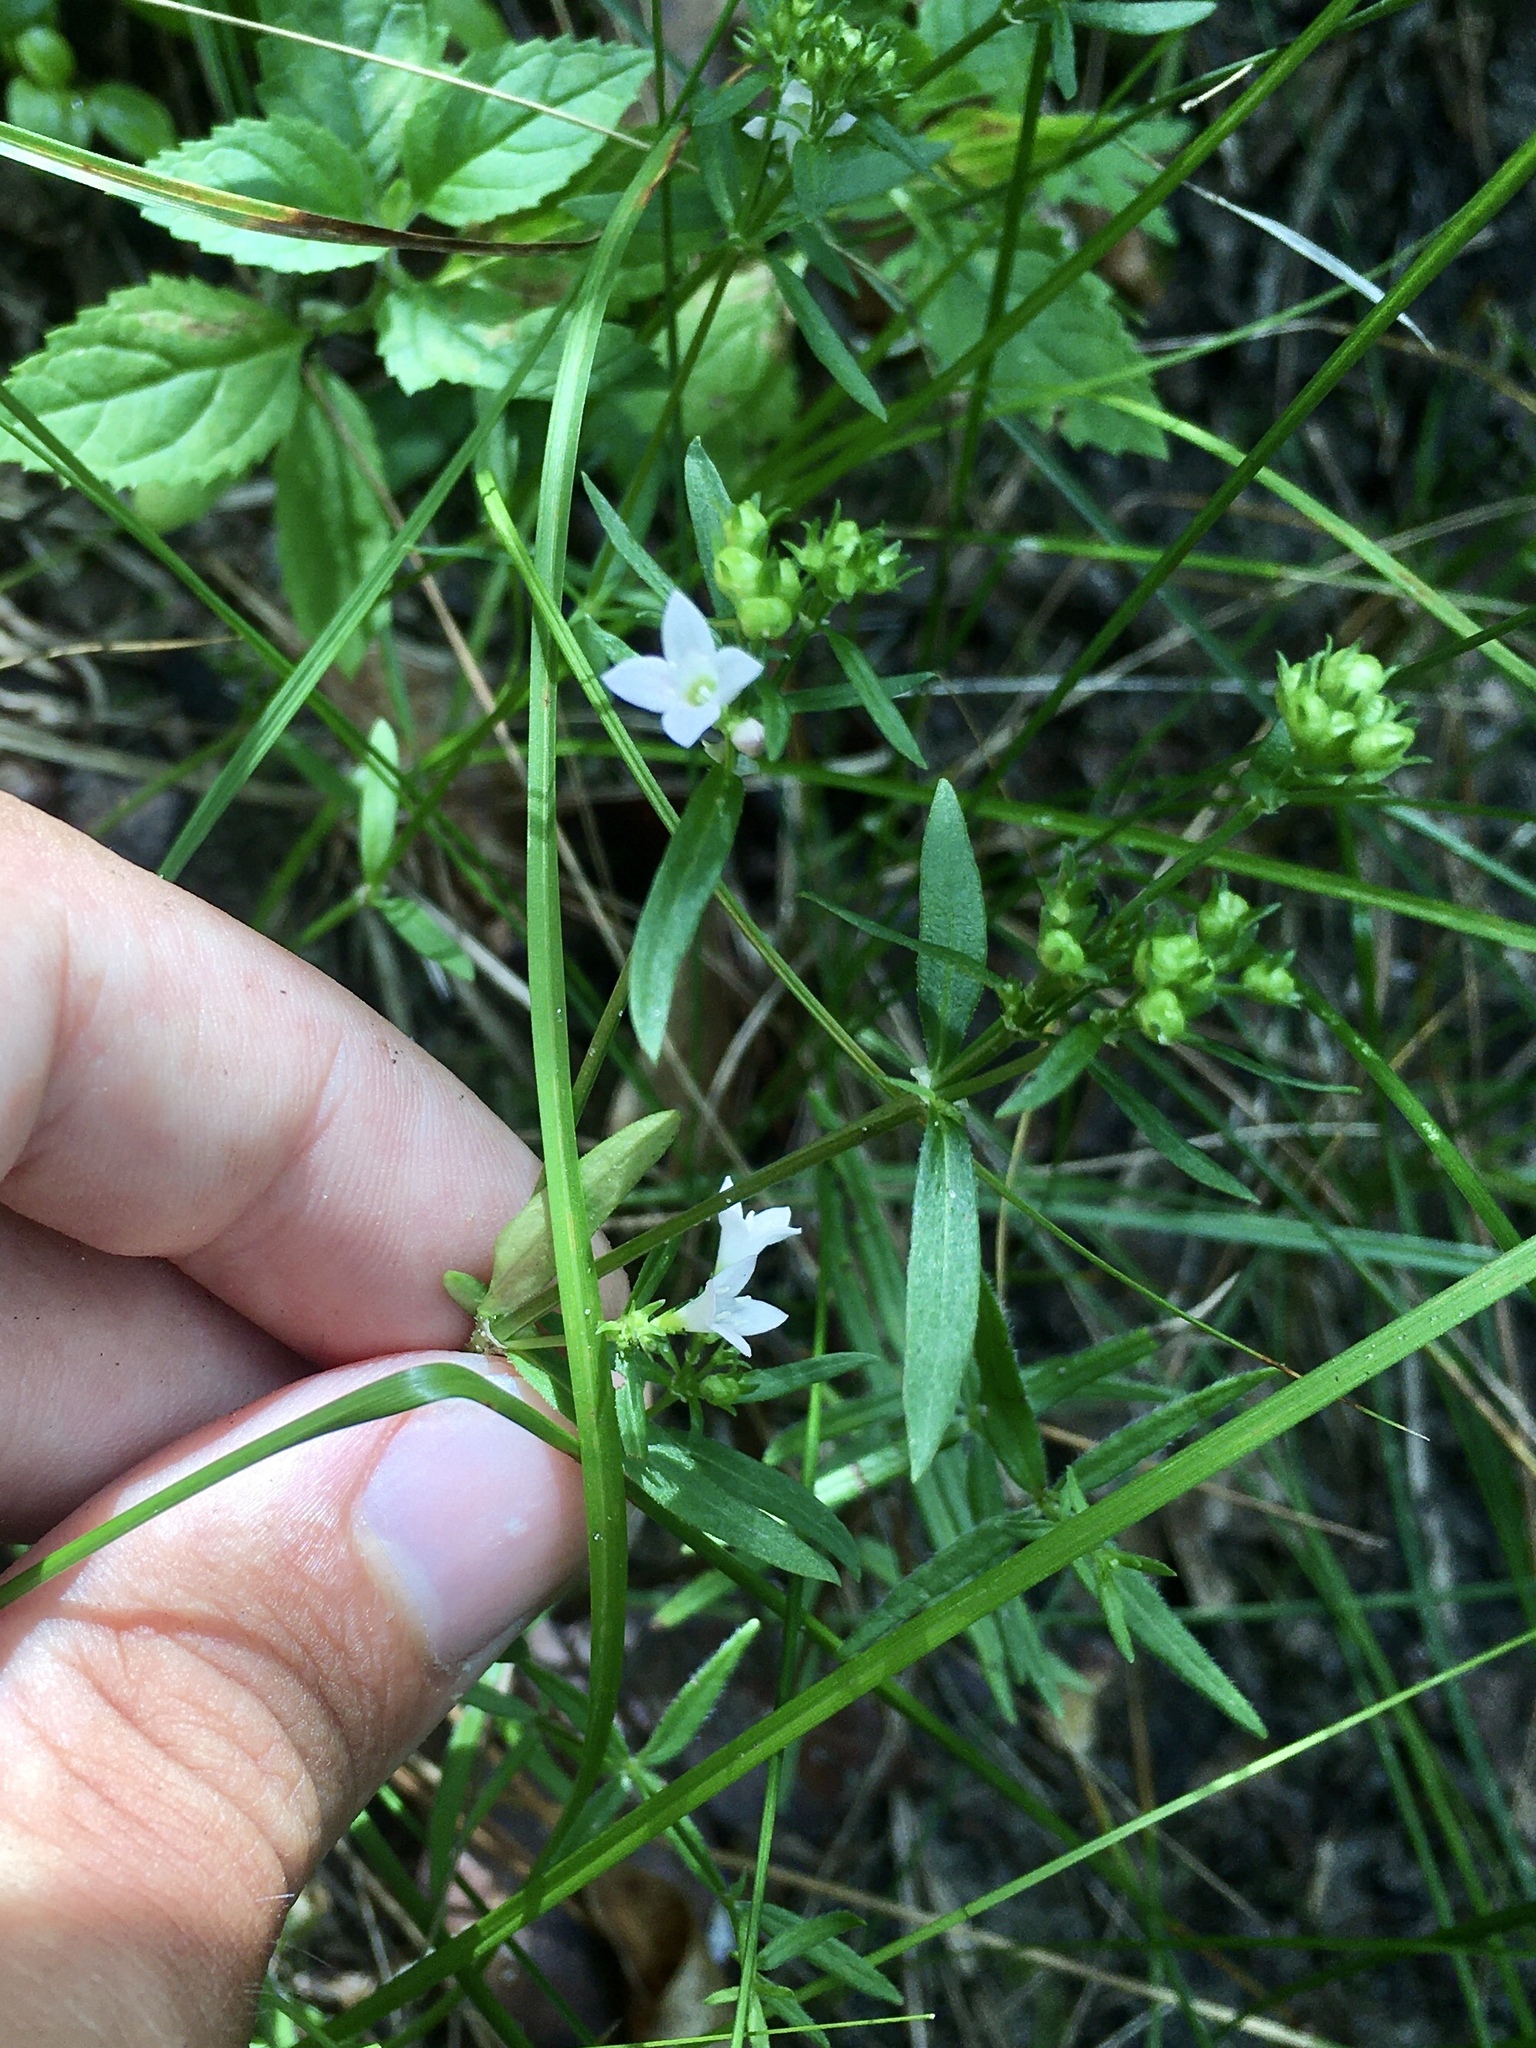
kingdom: Plantae
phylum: Tracheophyta
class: Magnoliopsida
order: Gentianales
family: Rubiaceae
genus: Houstonia
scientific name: Houstonia longifolia
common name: Long-leaved bluets
